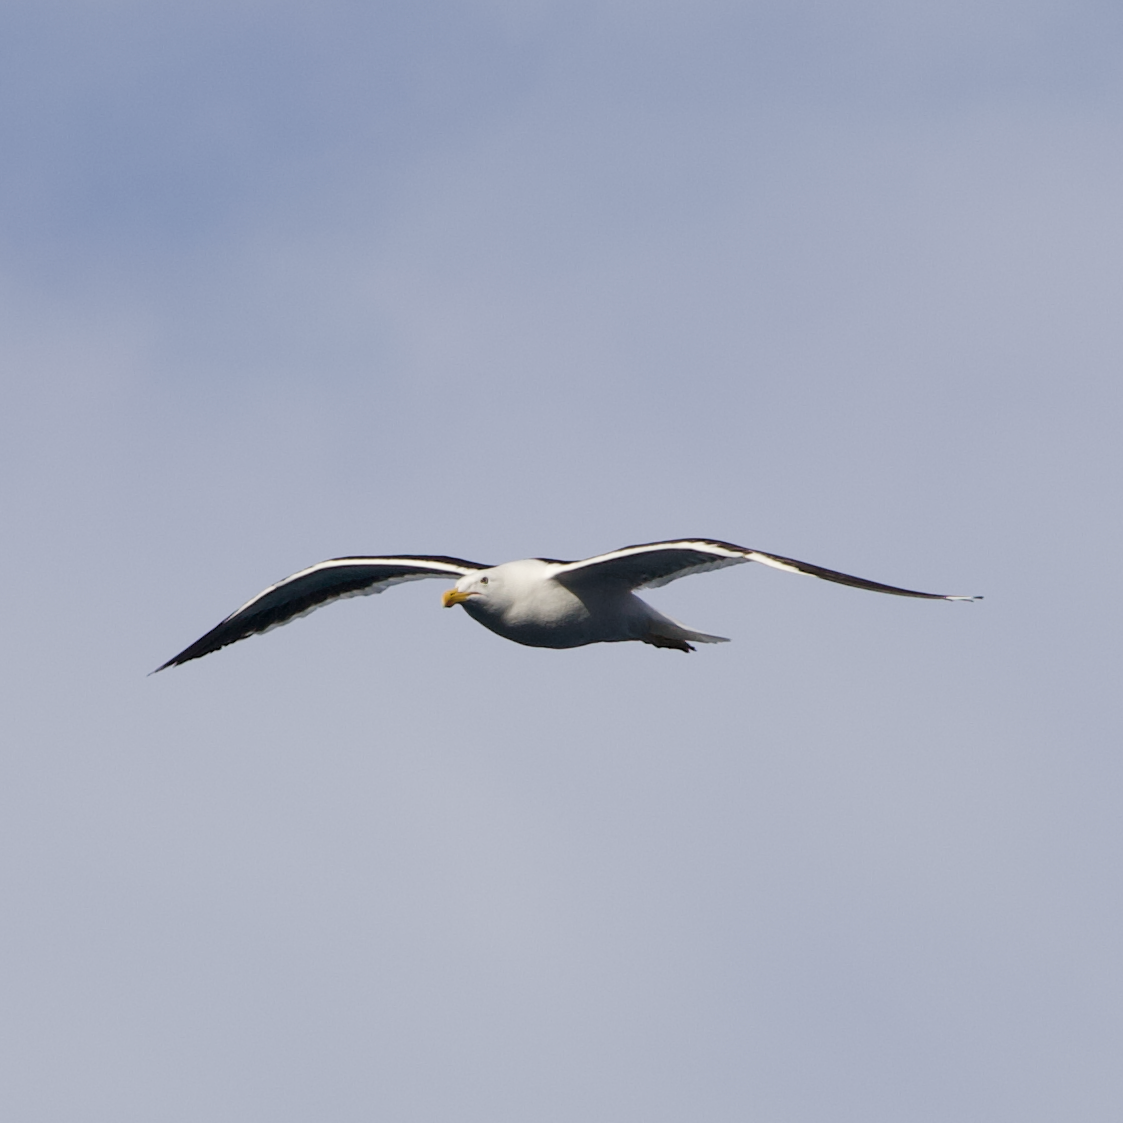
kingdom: Animalia
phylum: Chordata
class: Aves
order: Charadriiformes
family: Laridae
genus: Larus
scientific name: Larus dominicanus
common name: Kelp gull
